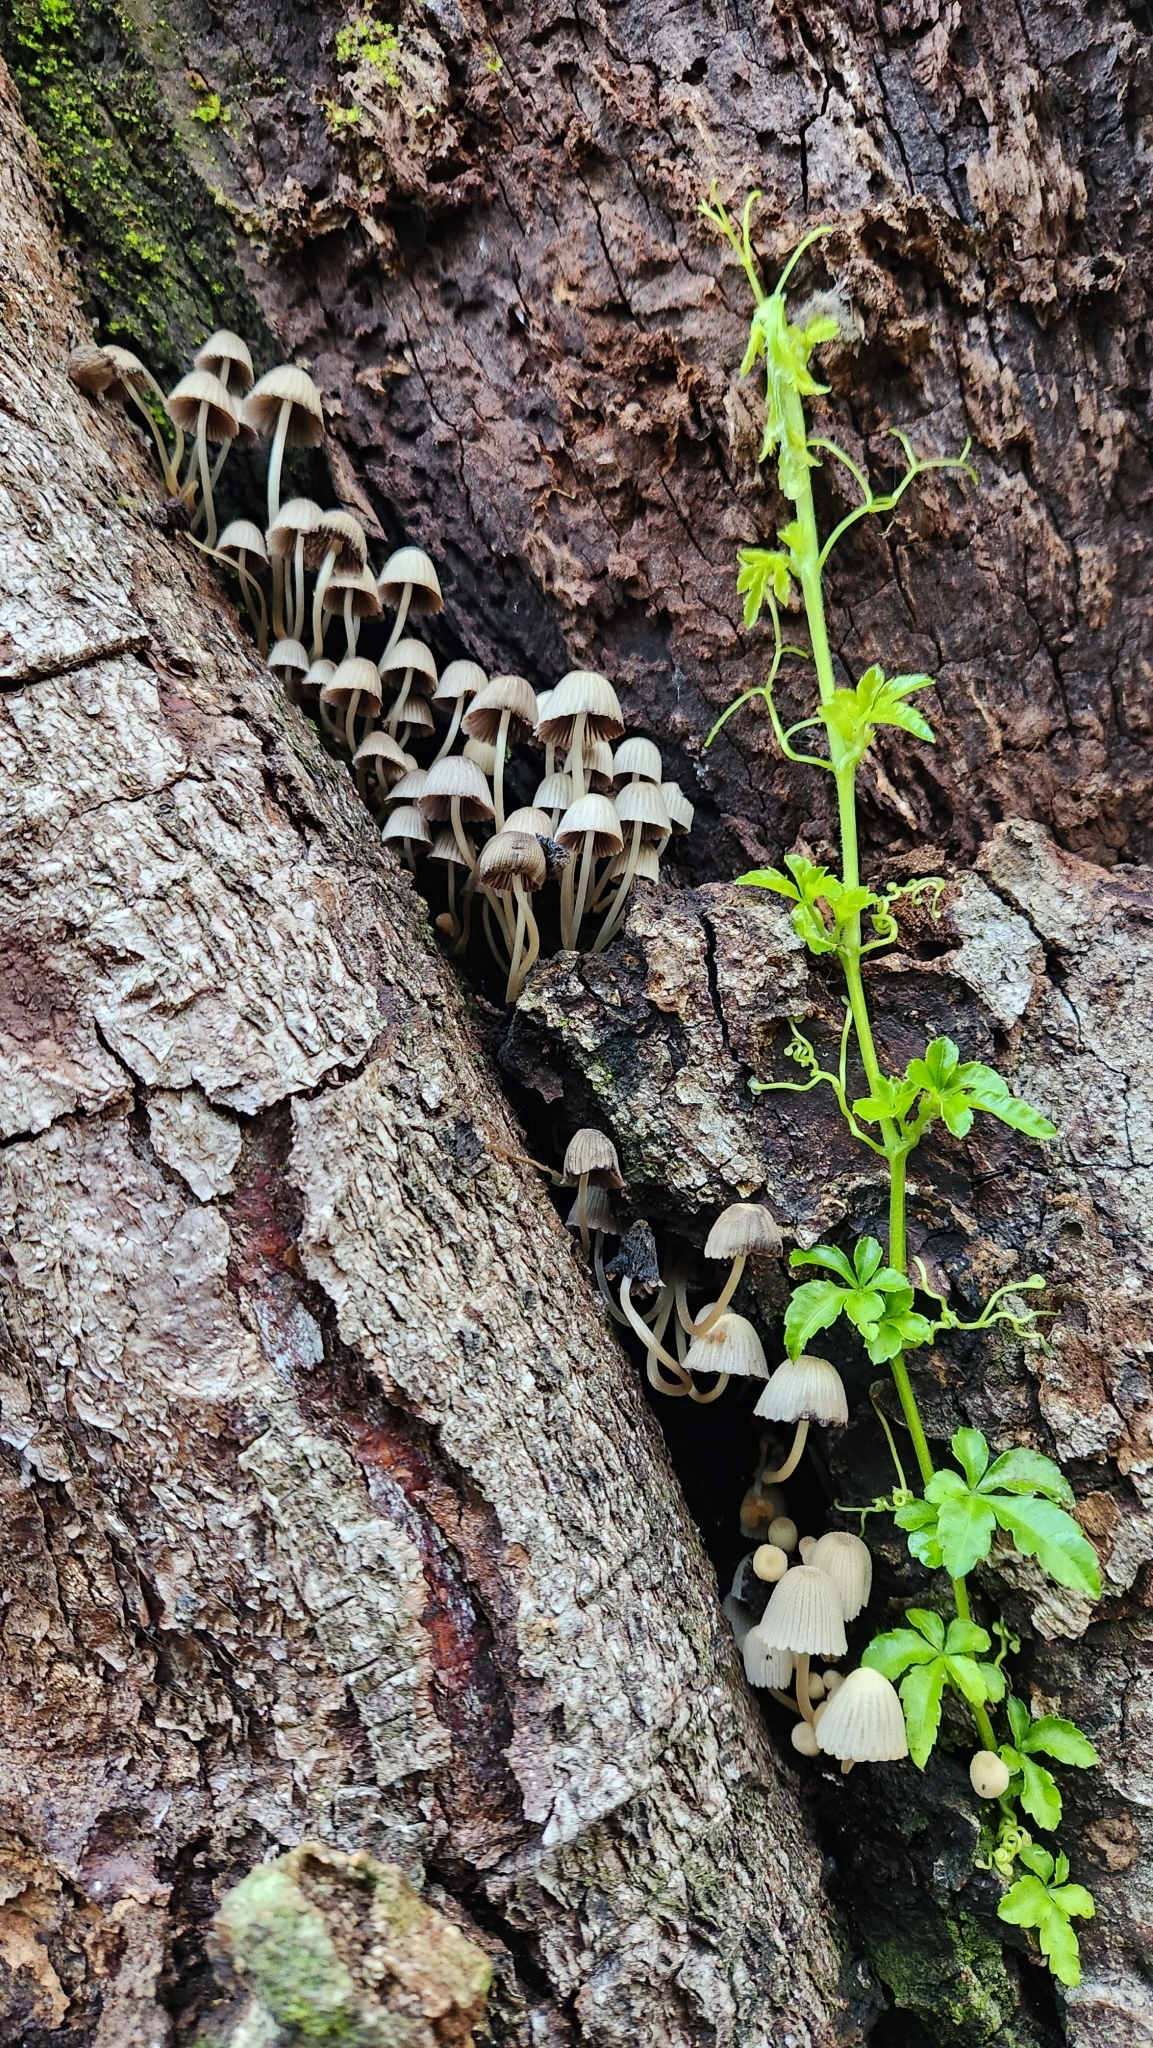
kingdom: Fungi
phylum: Basidiomycota
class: Agaricomycetes
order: Agaricales
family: Psathyrellaceae
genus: Coprinellus
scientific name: Coprinellus disseminatus
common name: Fairies' bonnets
